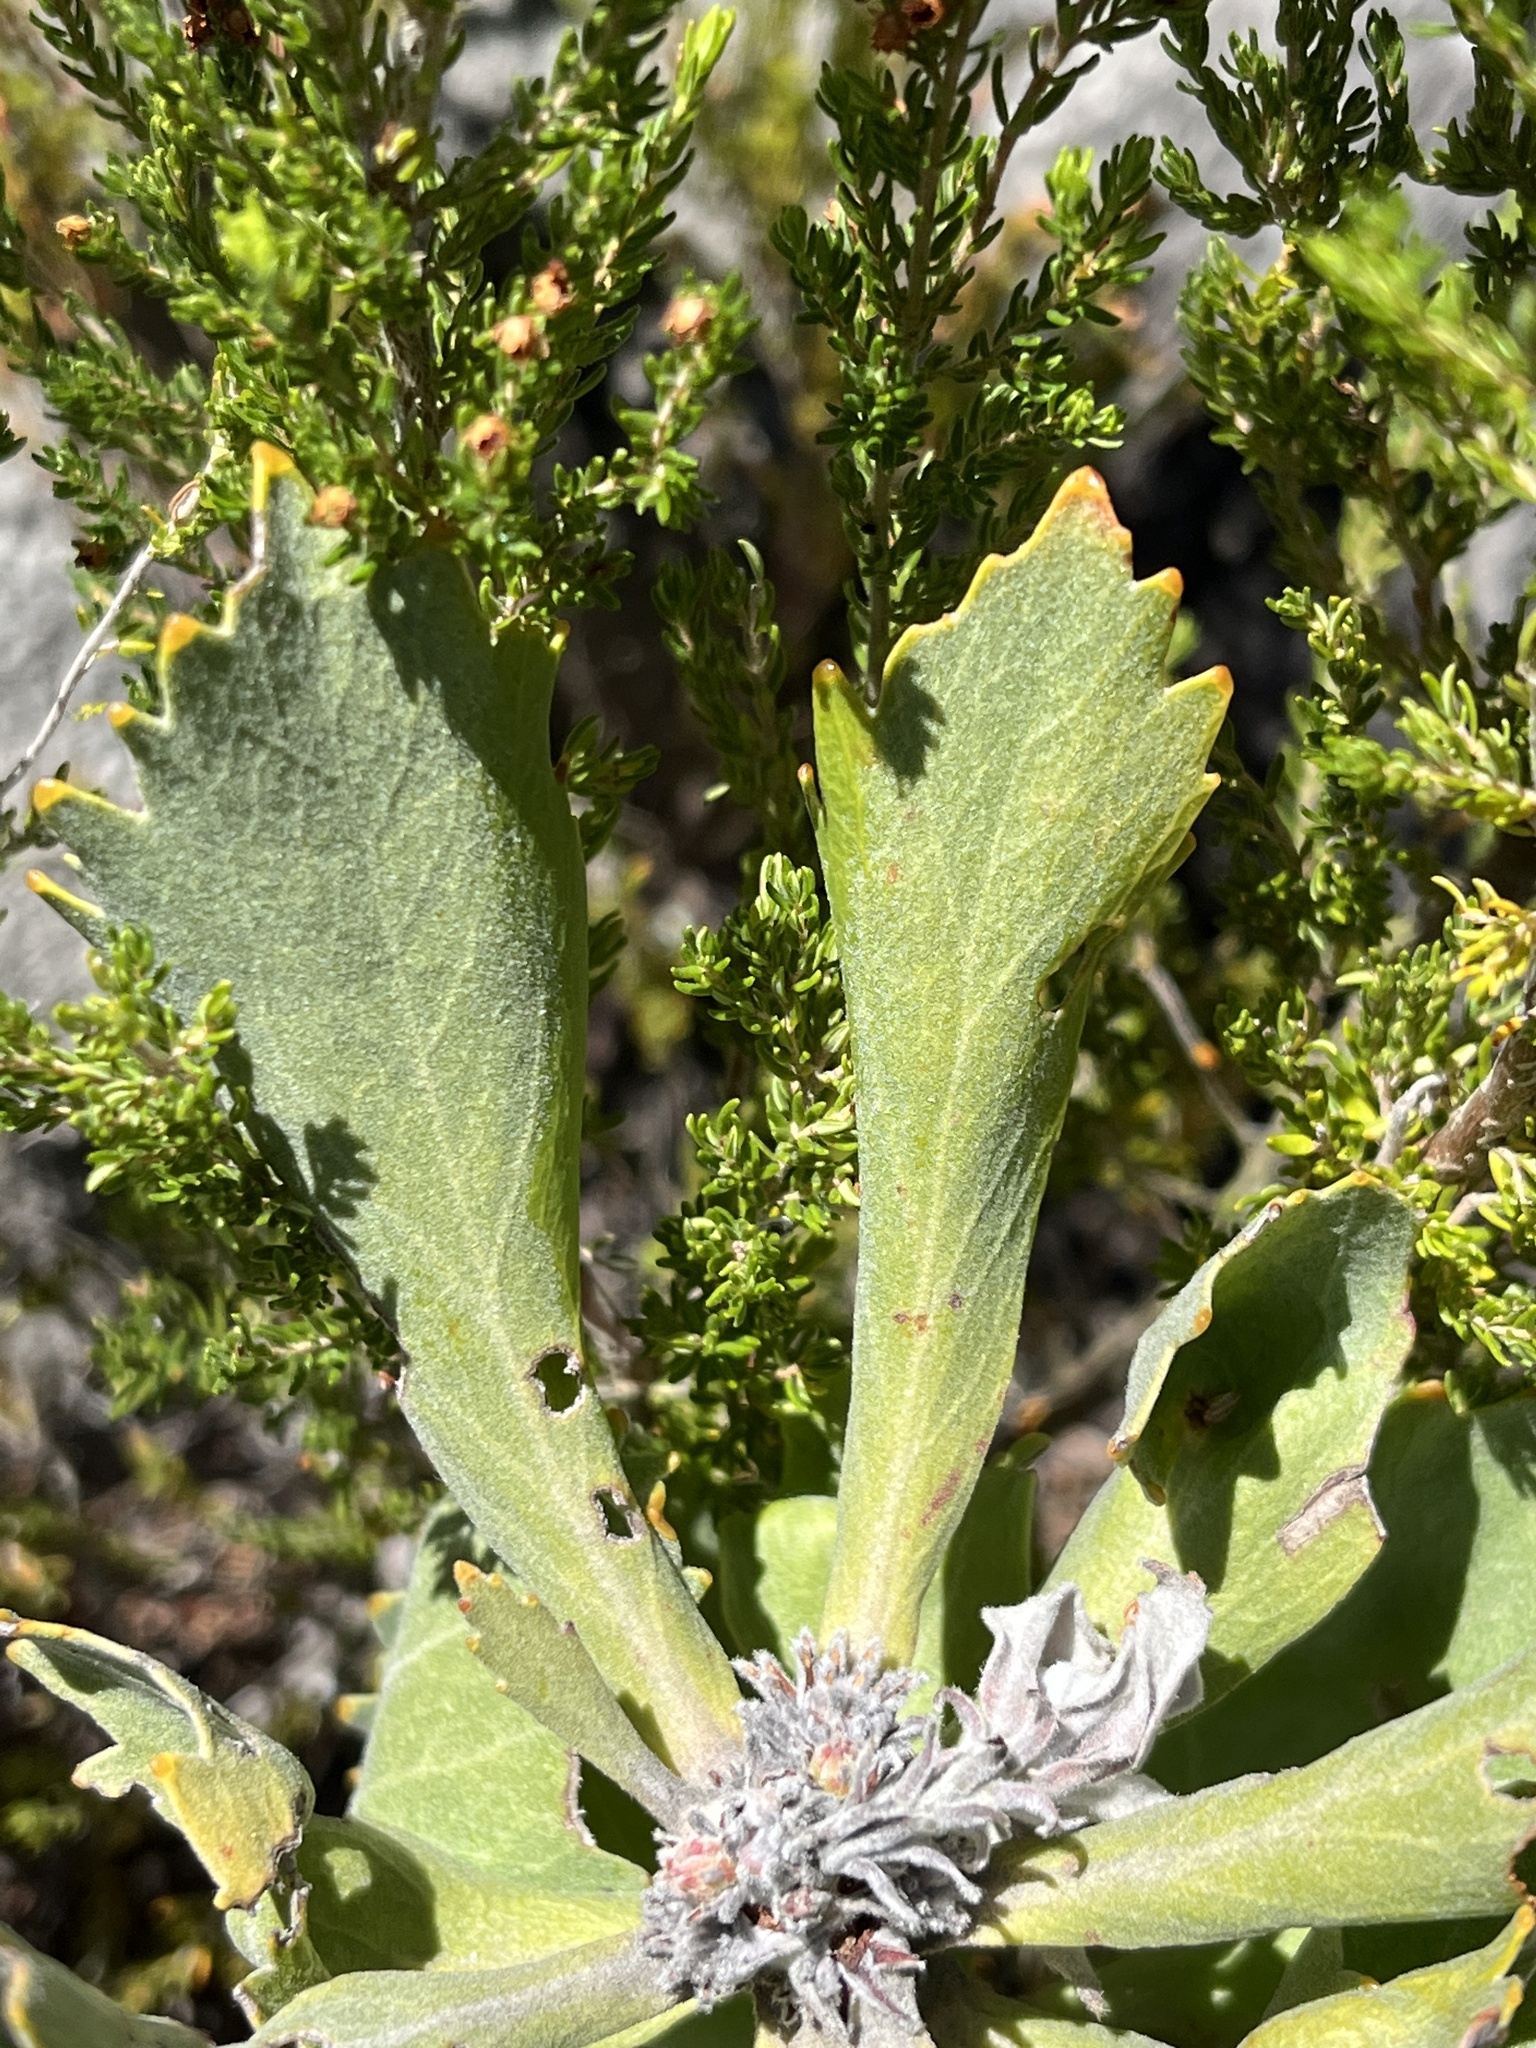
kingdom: Plantae
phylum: Tracheophyta
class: Magnoliopsida
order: Proteales
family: Proteaceae
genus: Leucospermum
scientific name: Leucospermum mundii
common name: Langeberg pincushion
